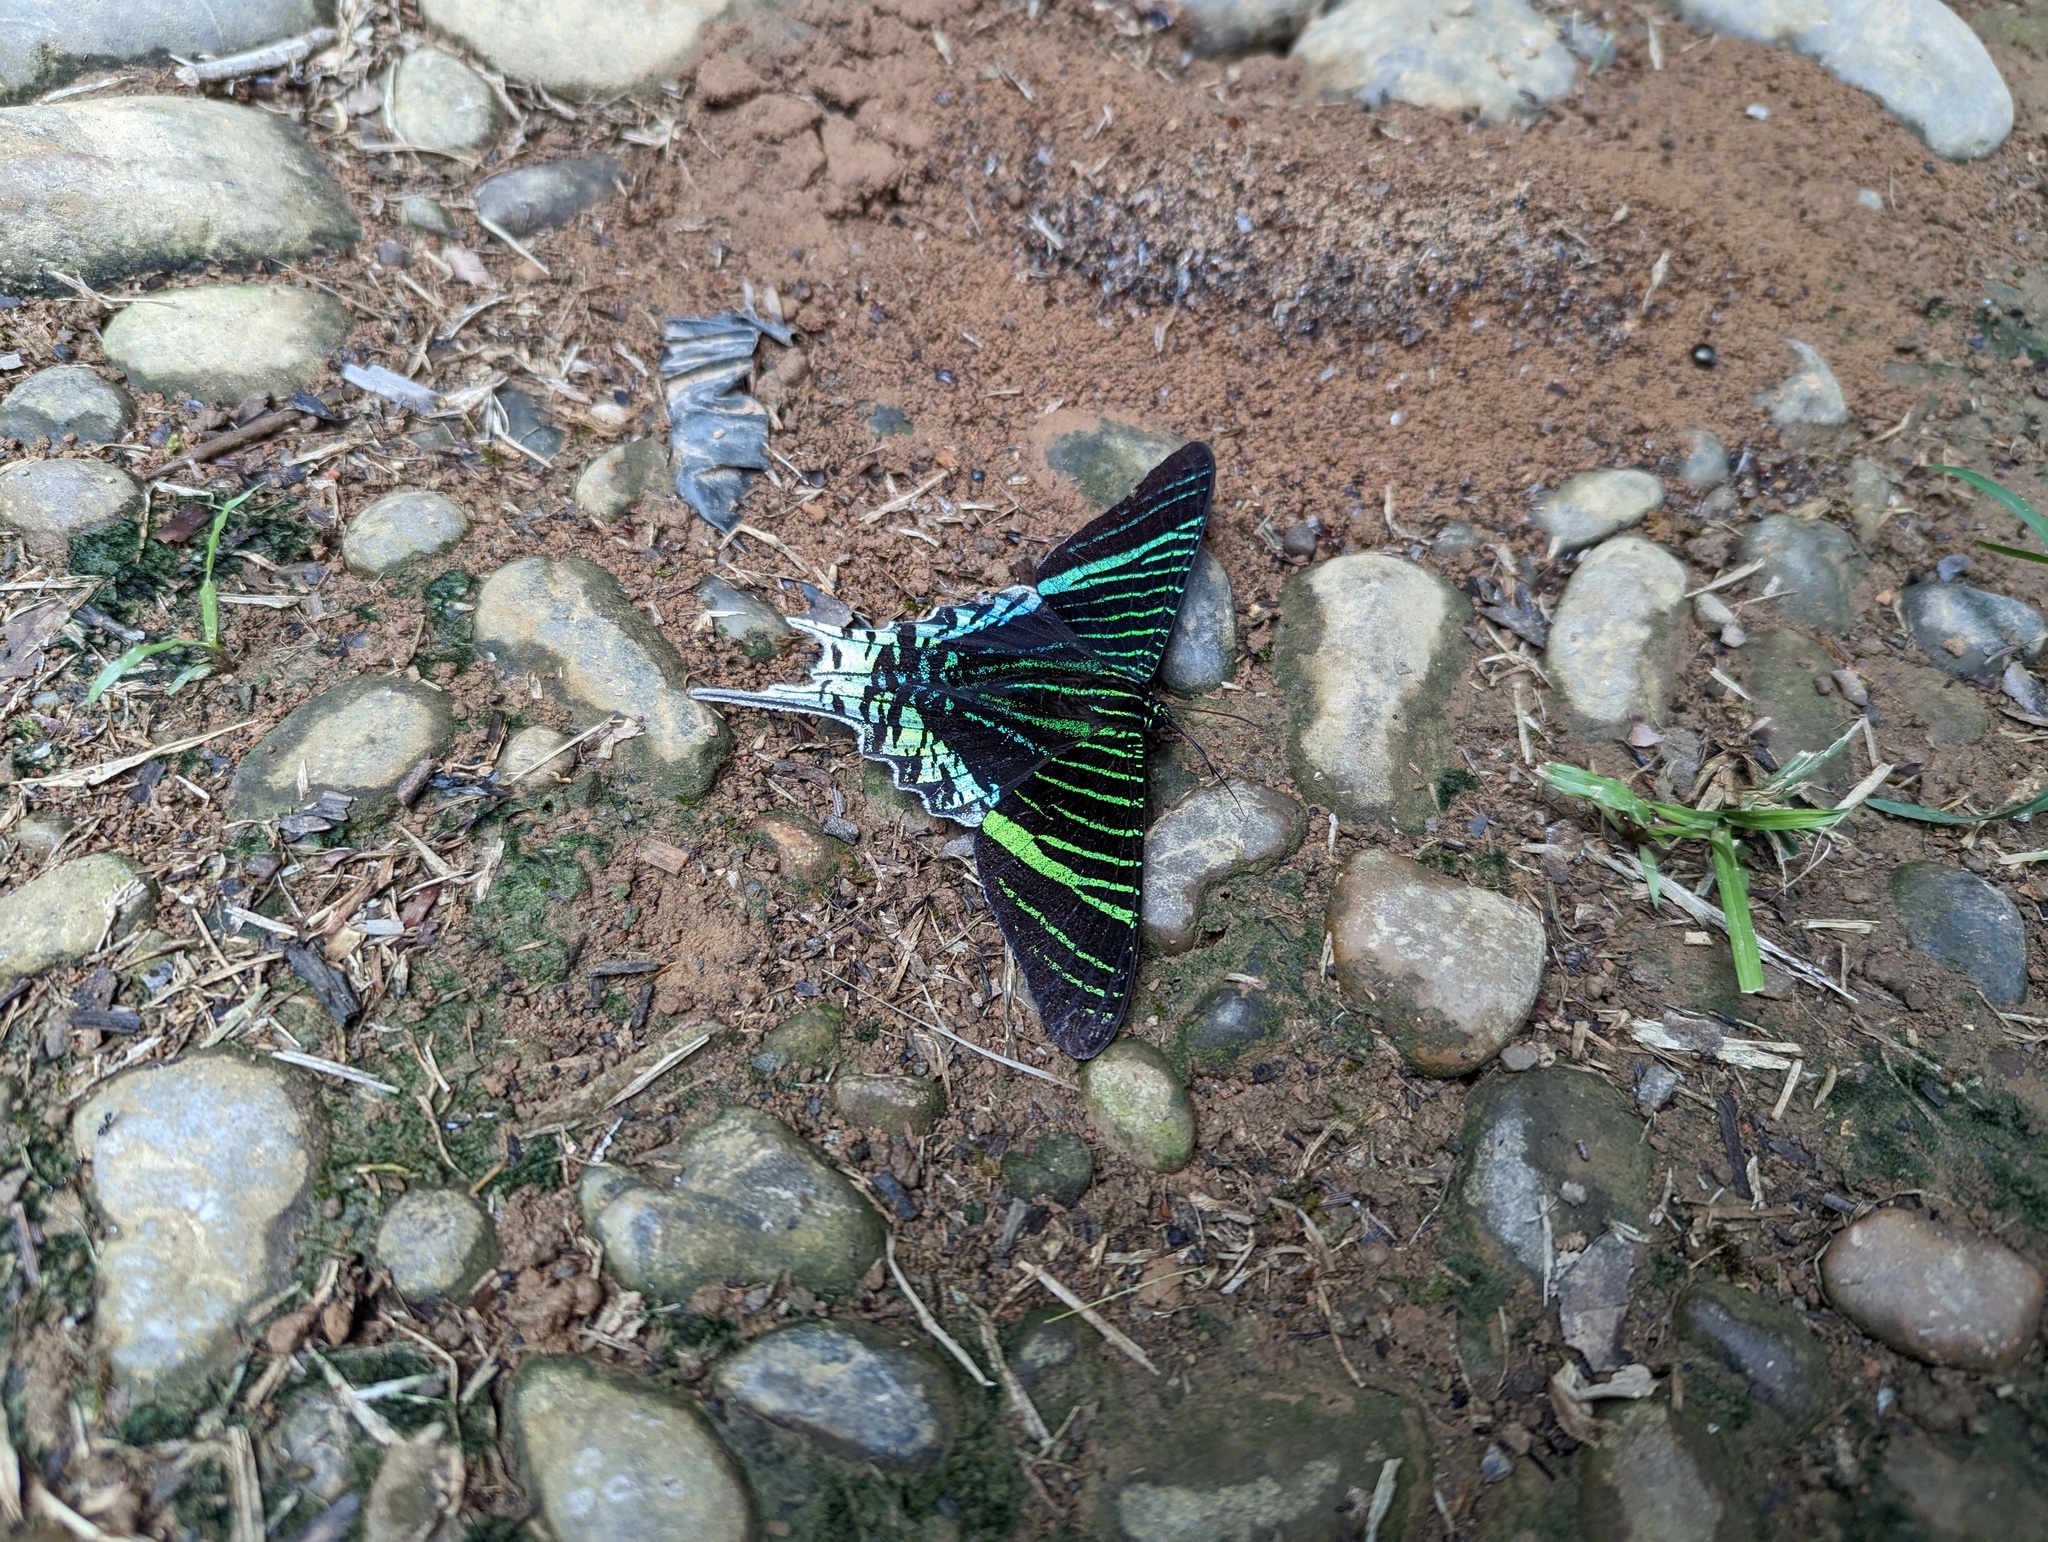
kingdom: Animalia
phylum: Arthropoda
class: Insecta
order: Lepidoptera
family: Uraniidae
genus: Urania
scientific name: Urania leilus
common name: Peacock moth
